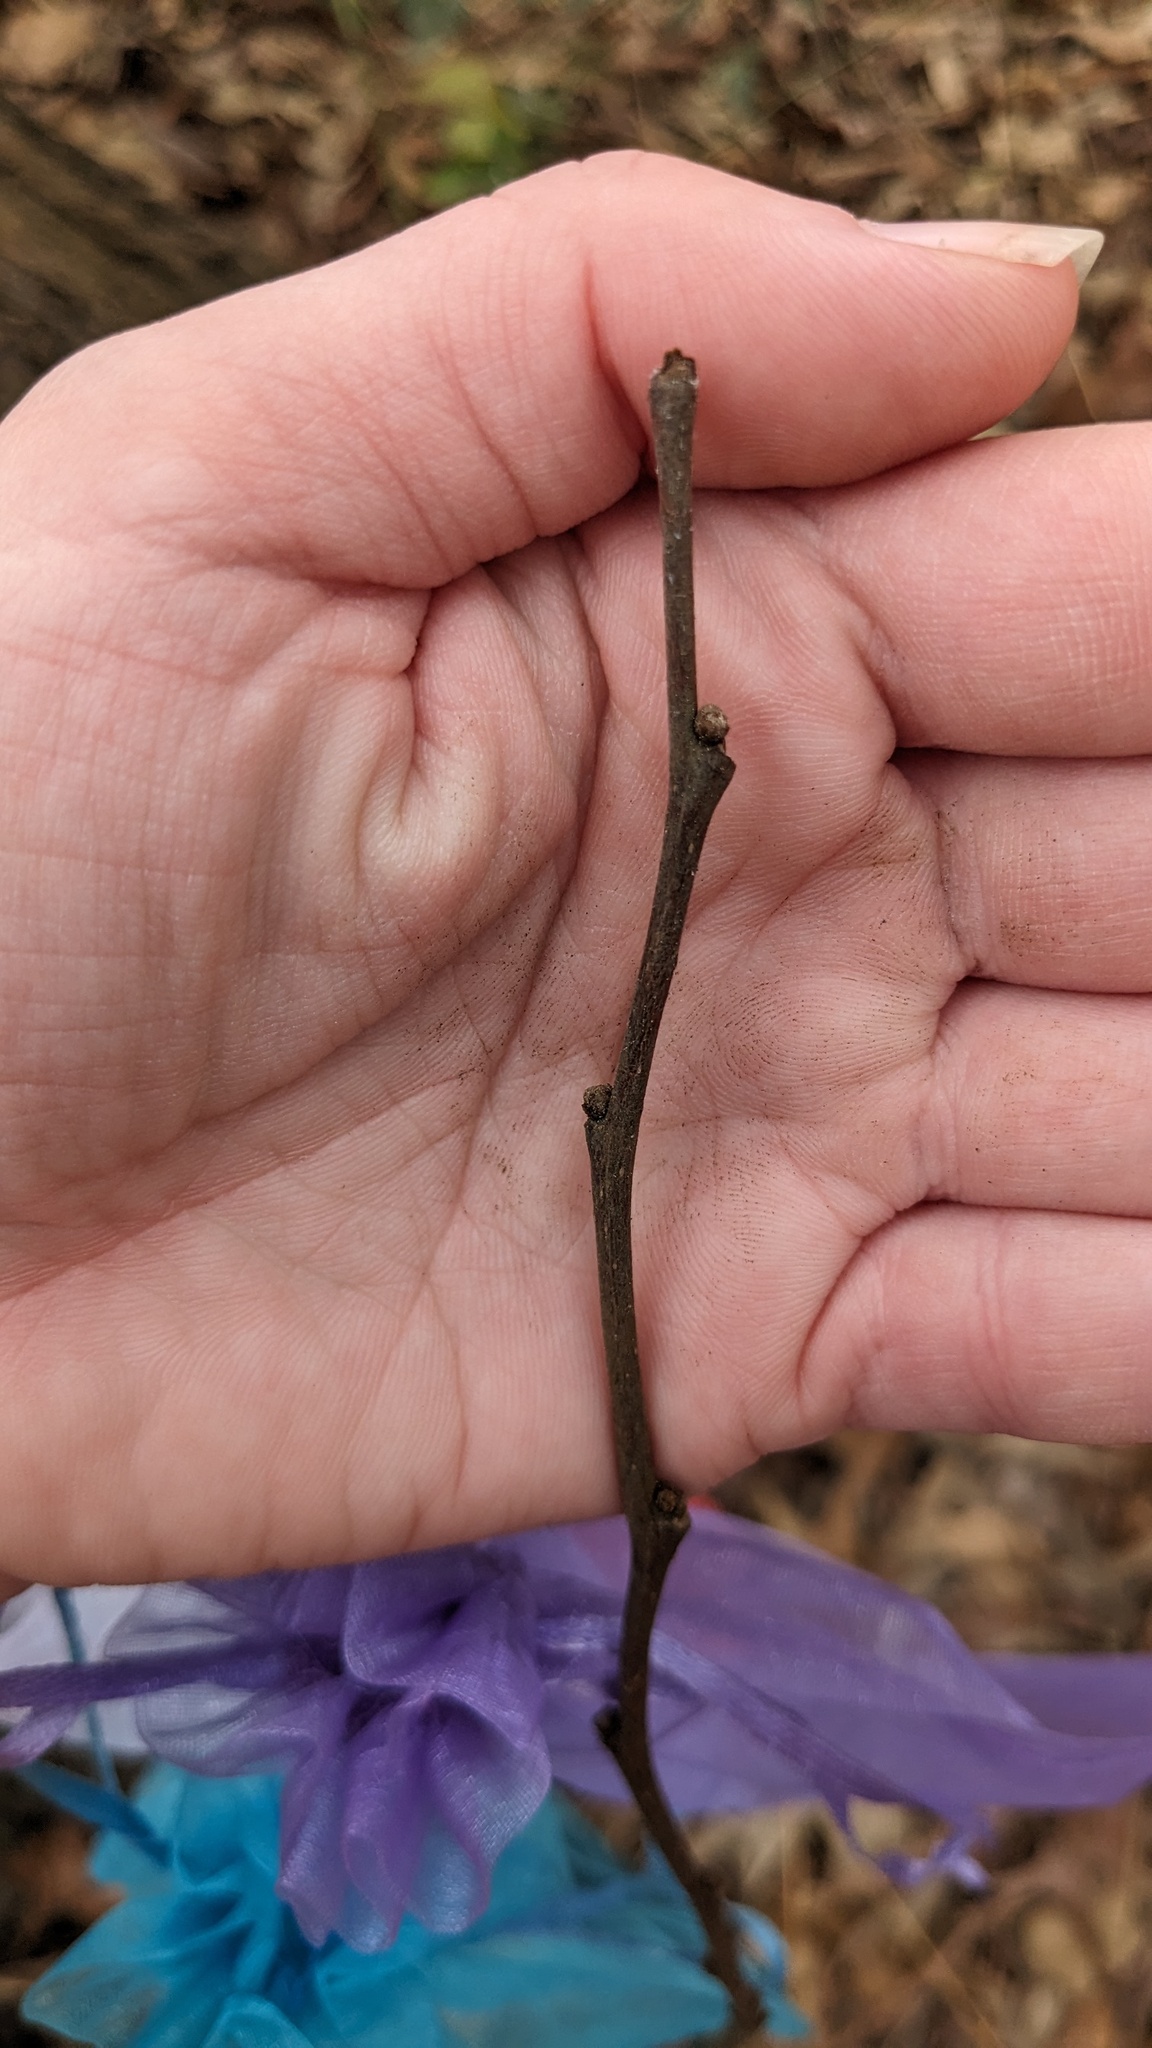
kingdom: Plantae
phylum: Tracheophyta
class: Magnoliopsida
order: Magnoliales
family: Annonaceae
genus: Asimina
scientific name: Asimina parviflora
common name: Dwarf pawpaw
